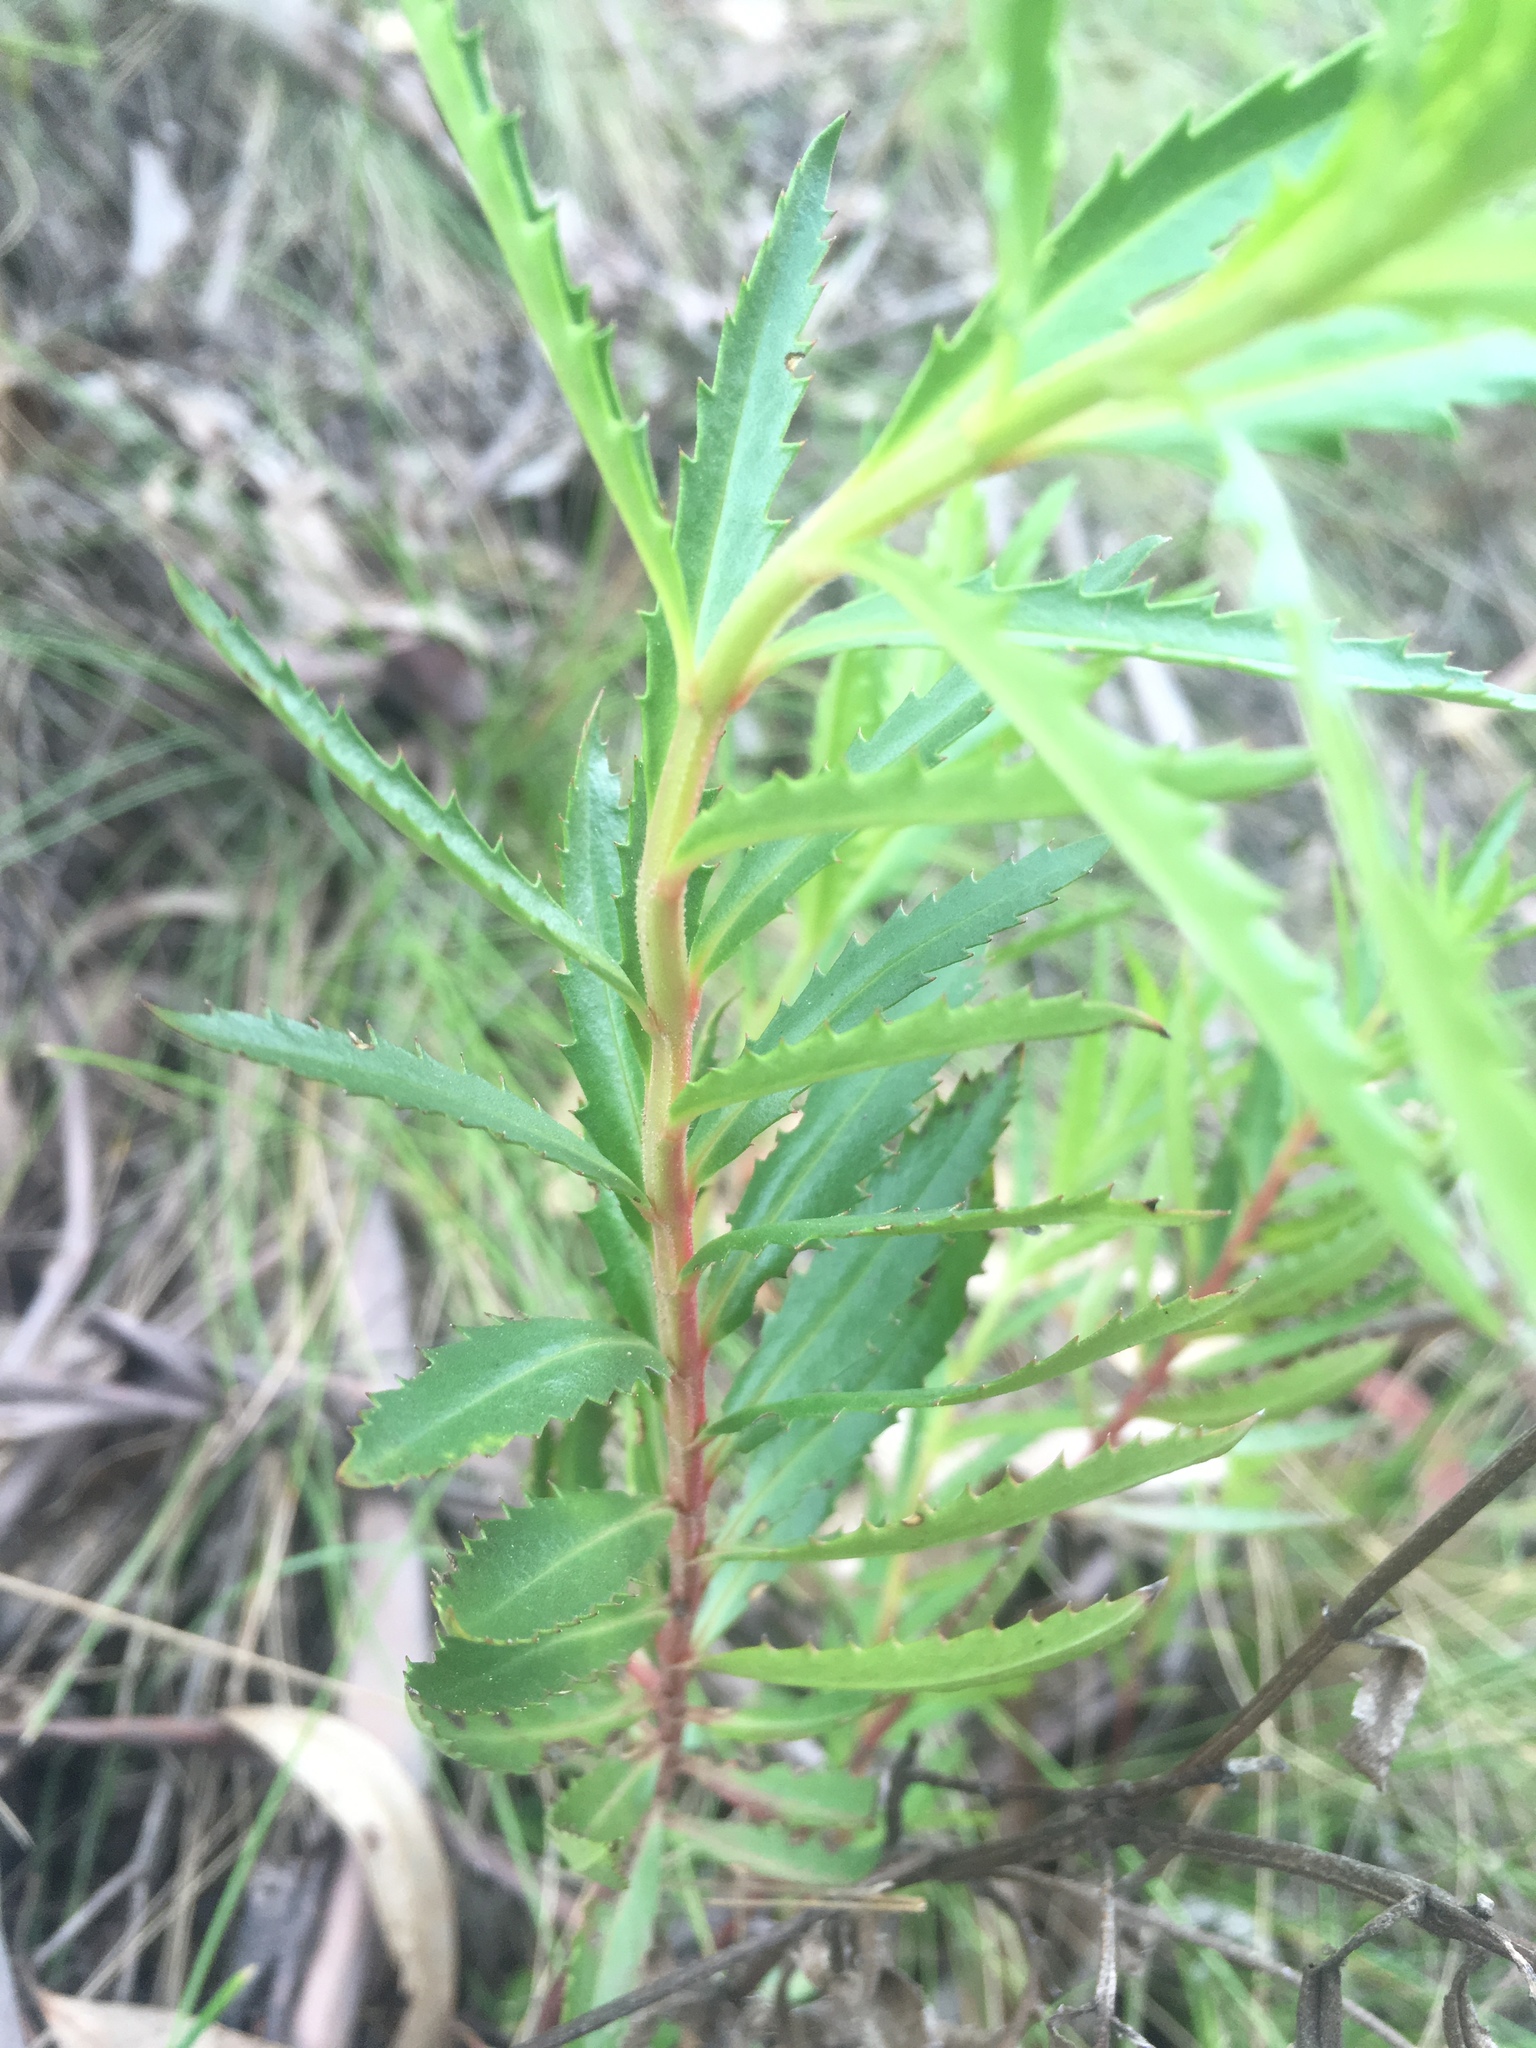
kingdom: Plantae
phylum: Tracheophyta
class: Magnoliopsida
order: Saxifragales
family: Haloragaceae
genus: Haloragis
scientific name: Haloragis exalata
